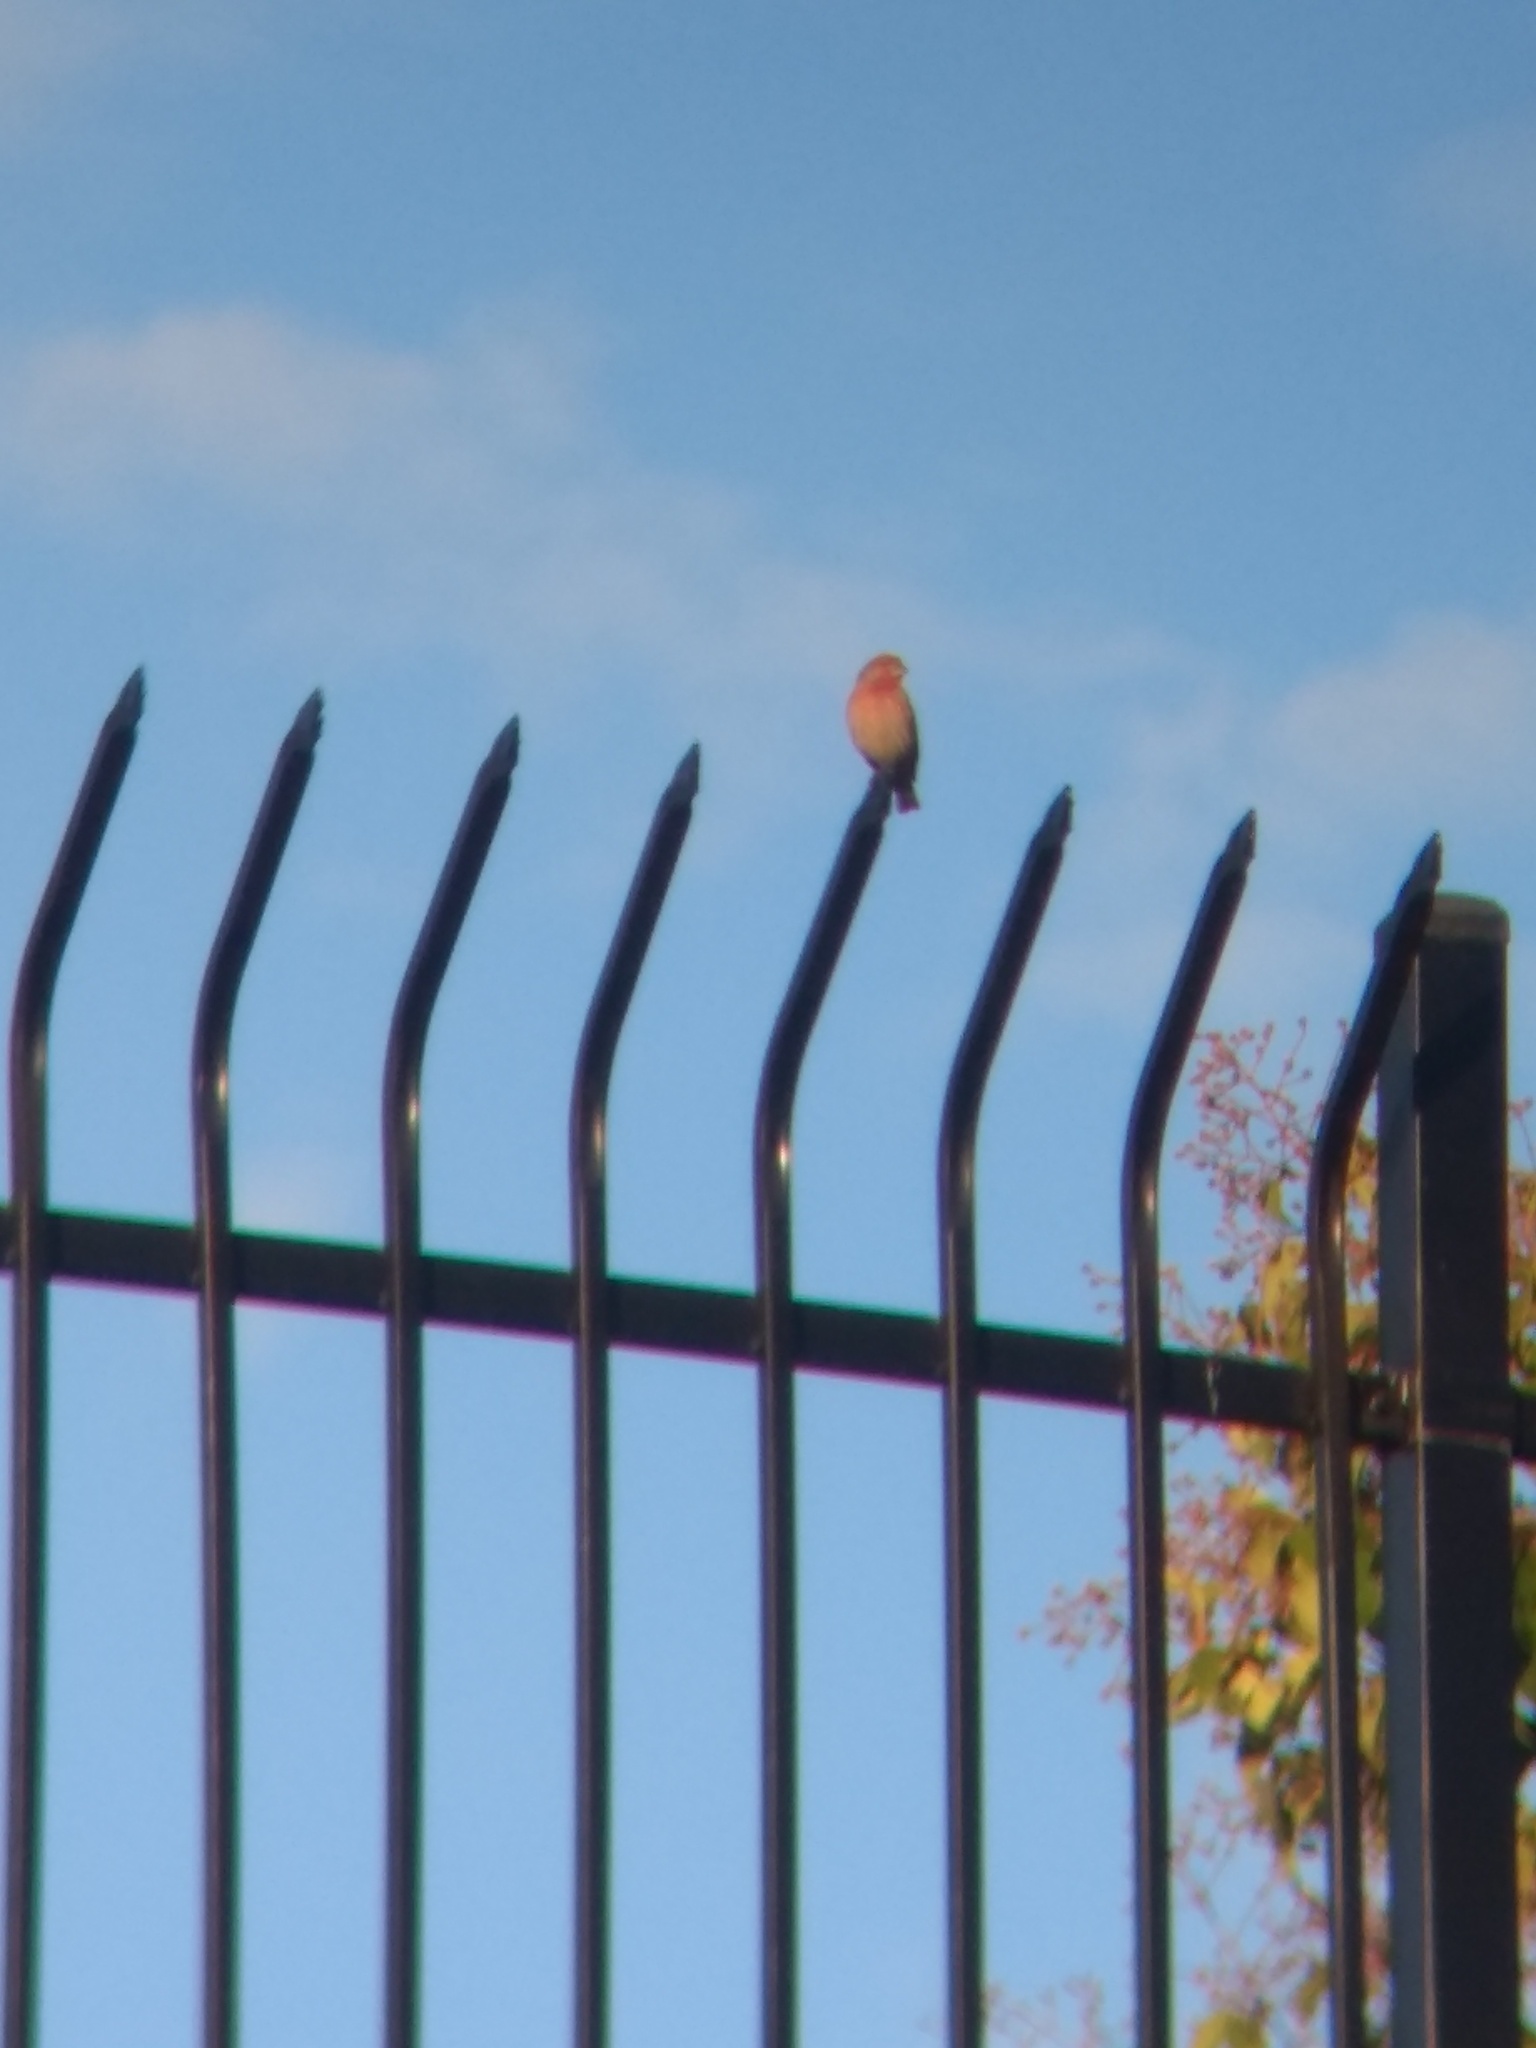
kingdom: Animalia
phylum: Chordata
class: Aves
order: Passeriformes
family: Fringillidae
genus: Haemorhous
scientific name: Haemorhous mexicanus
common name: House finch
